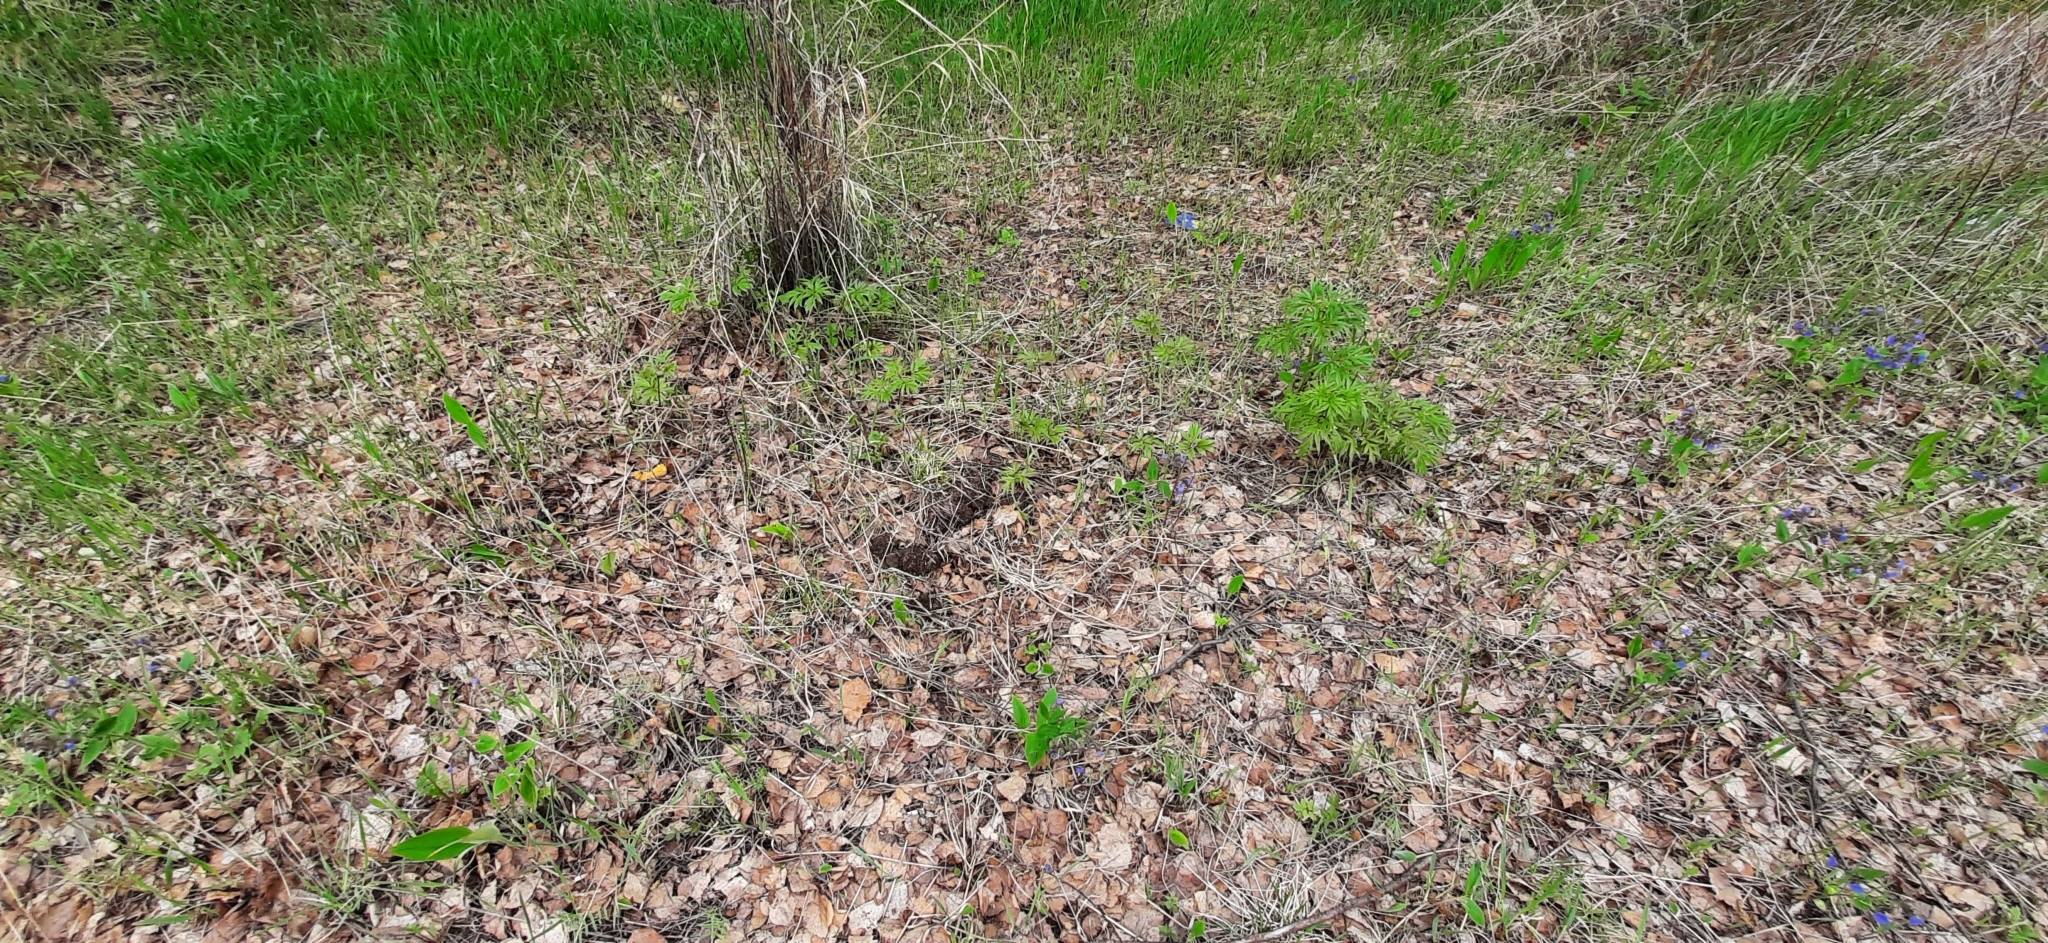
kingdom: Plantae
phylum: Tracheophyta
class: Magnoliopsida
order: Saxifragales
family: Paeoniaceae
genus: Paeonia
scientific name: Paeonia anomala
